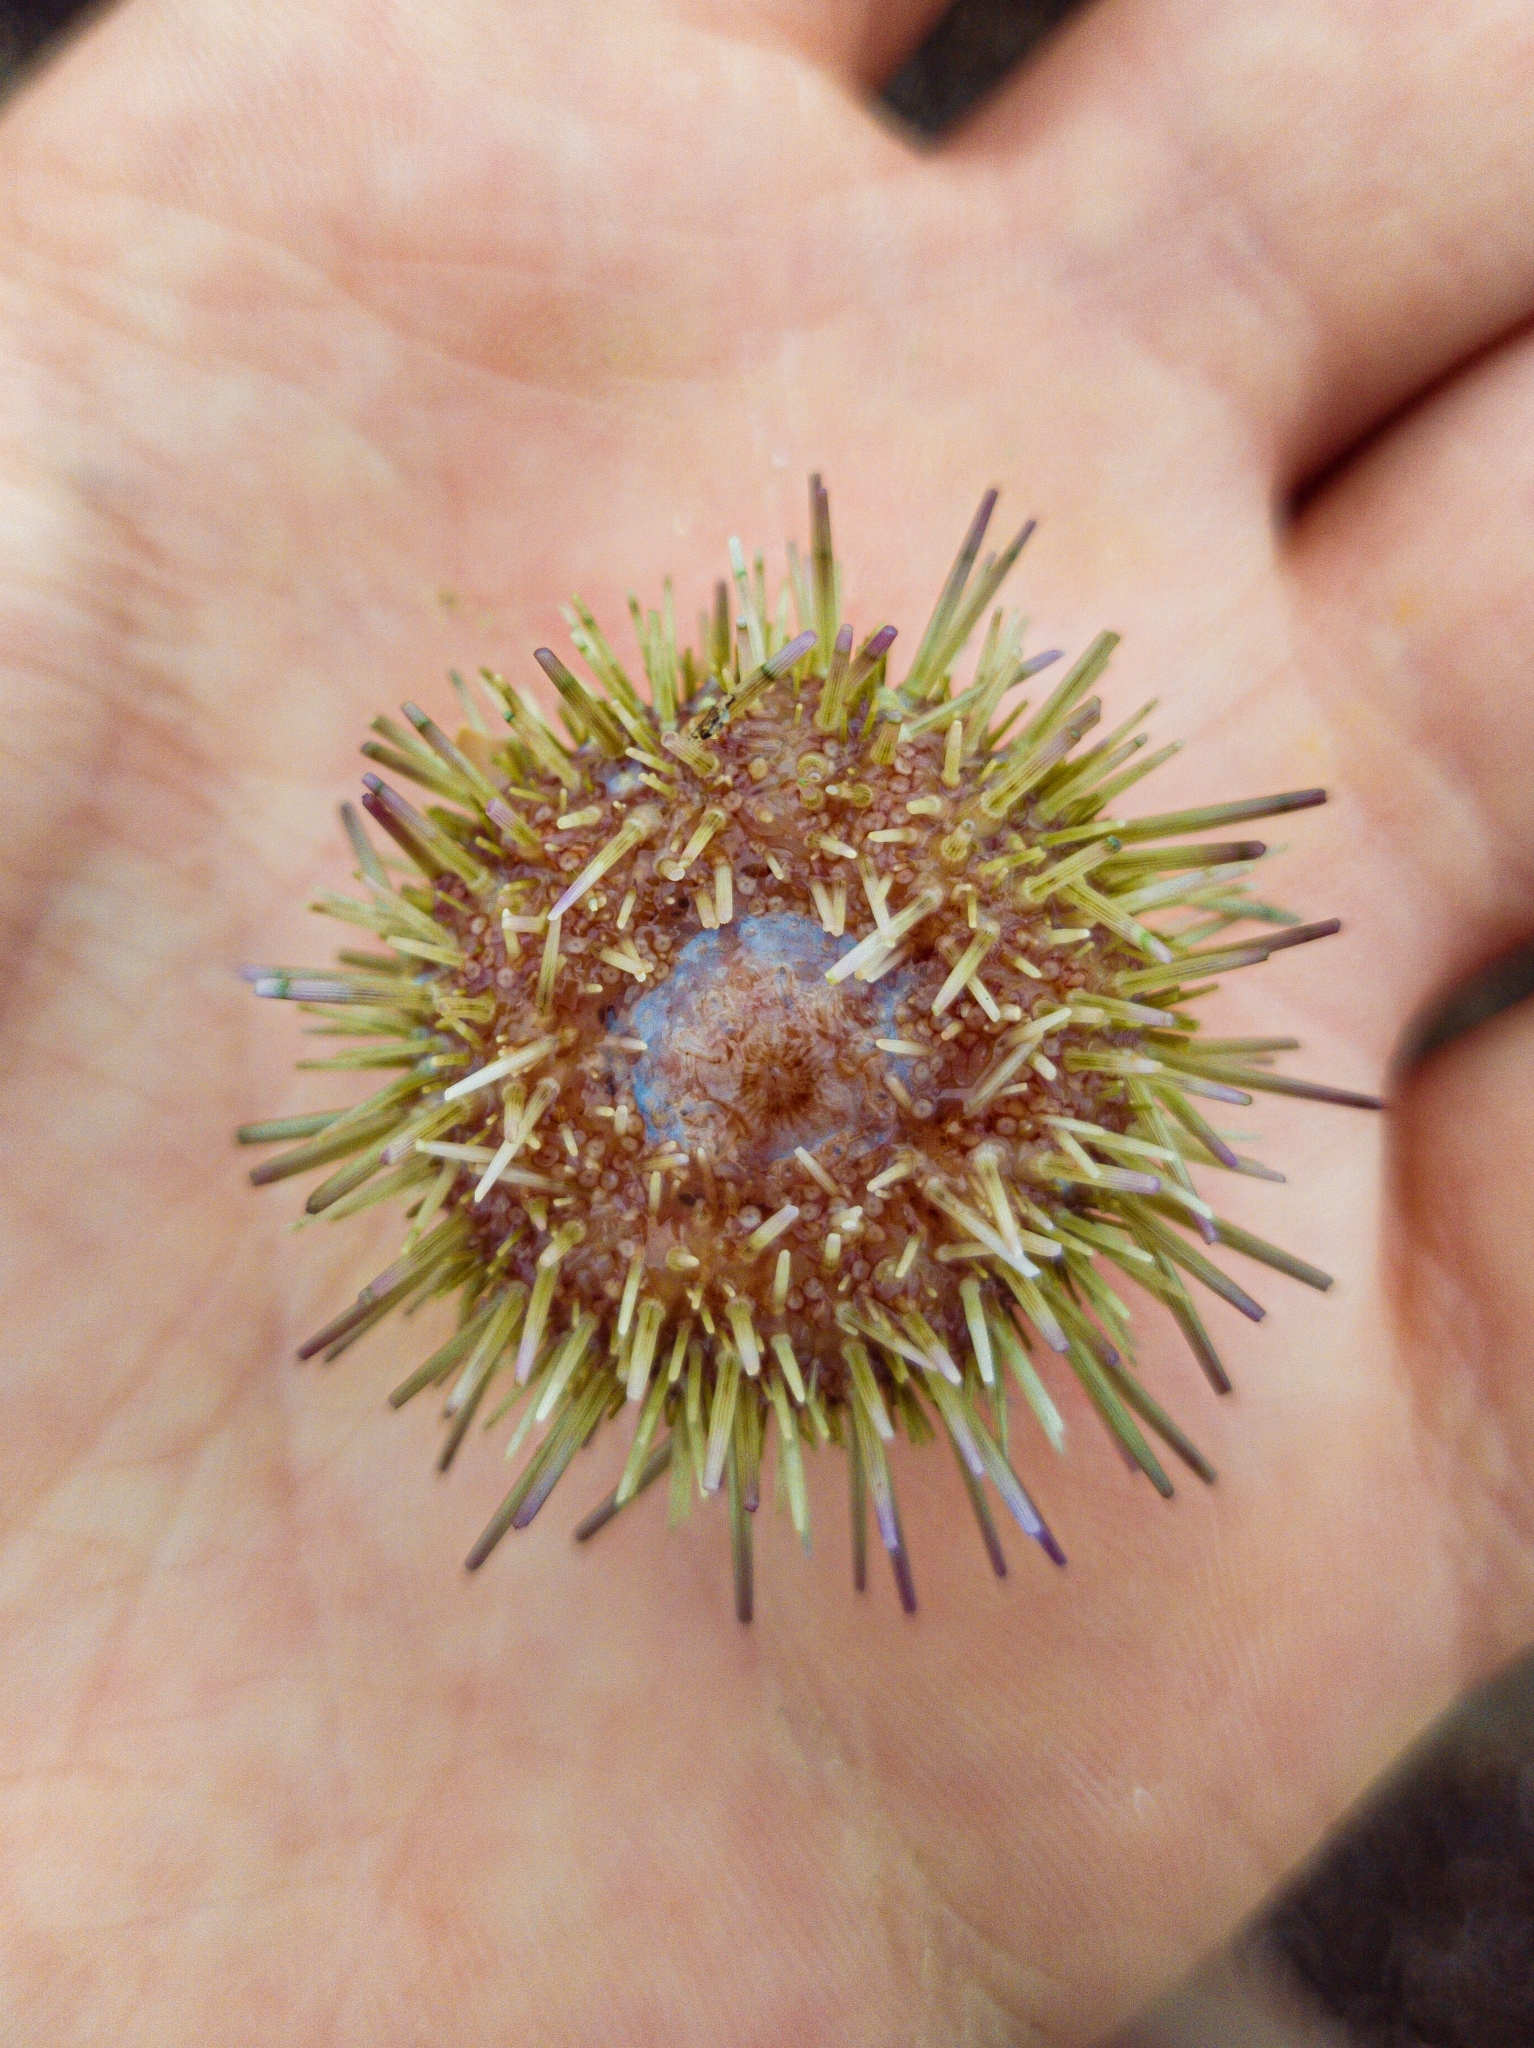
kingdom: Animalia
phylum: Echinodermata
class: Echinoidea
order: Camarodonta
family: Parechinidae
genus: Psammechinus
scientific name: Psammechinus miliaris
